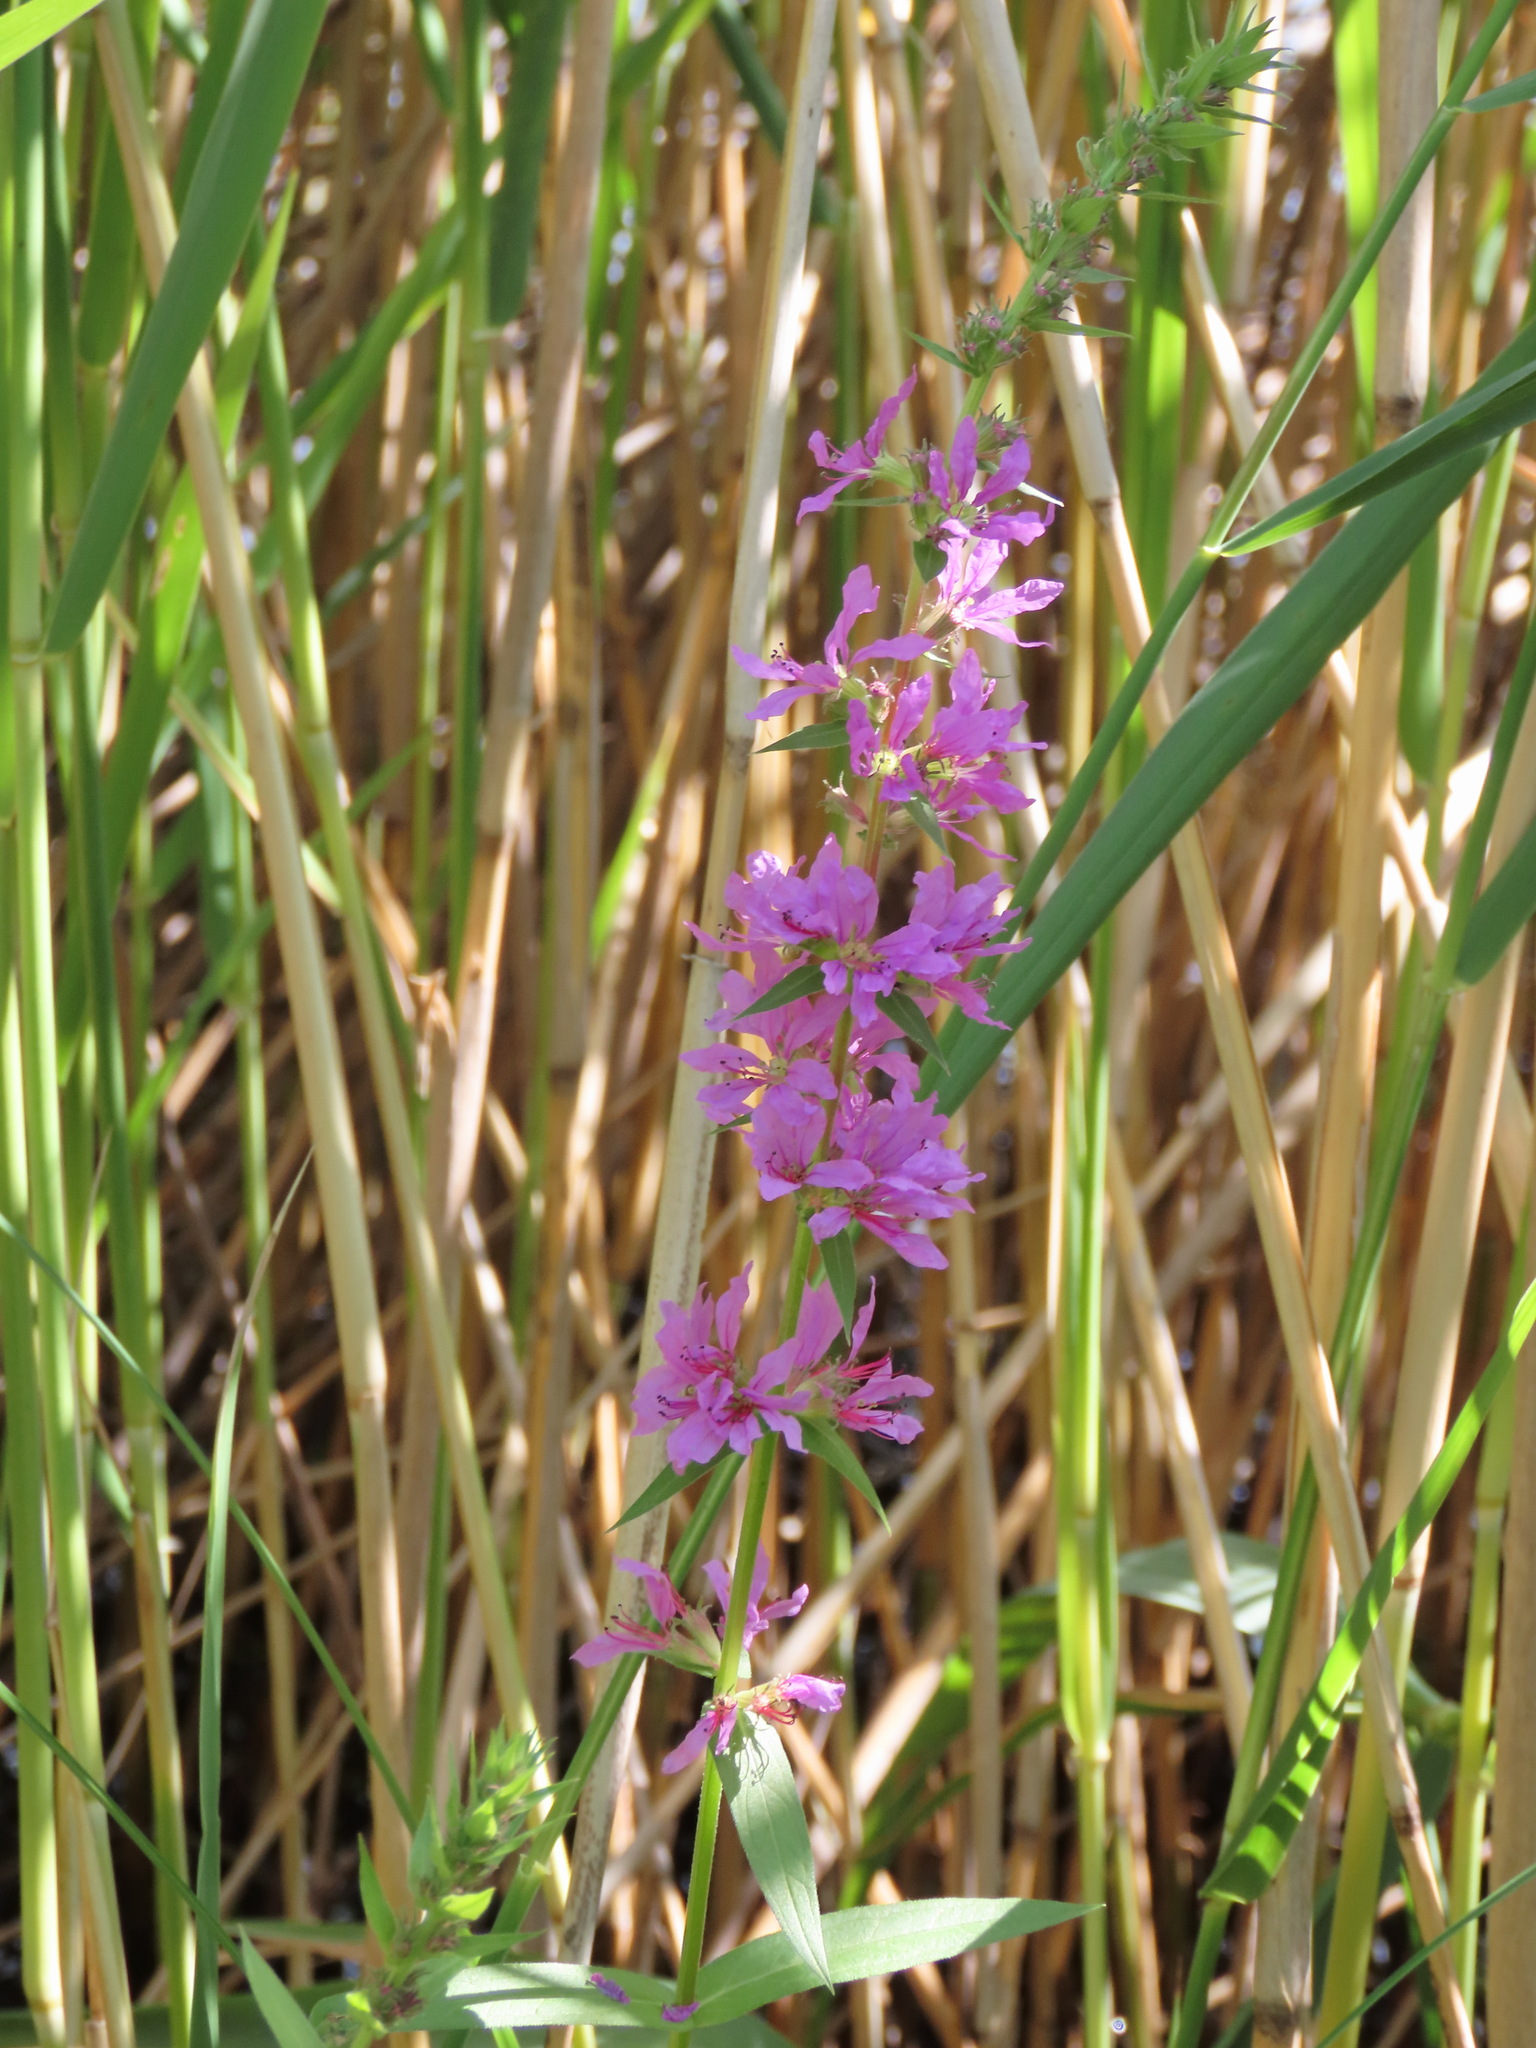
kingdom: Plantae
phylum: Tracheophyta
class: Magnoliopsida
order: Myrtales
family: Lythraceae
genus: Lythrum
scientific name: Lythrum salicaria
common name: Purple loosestrife
